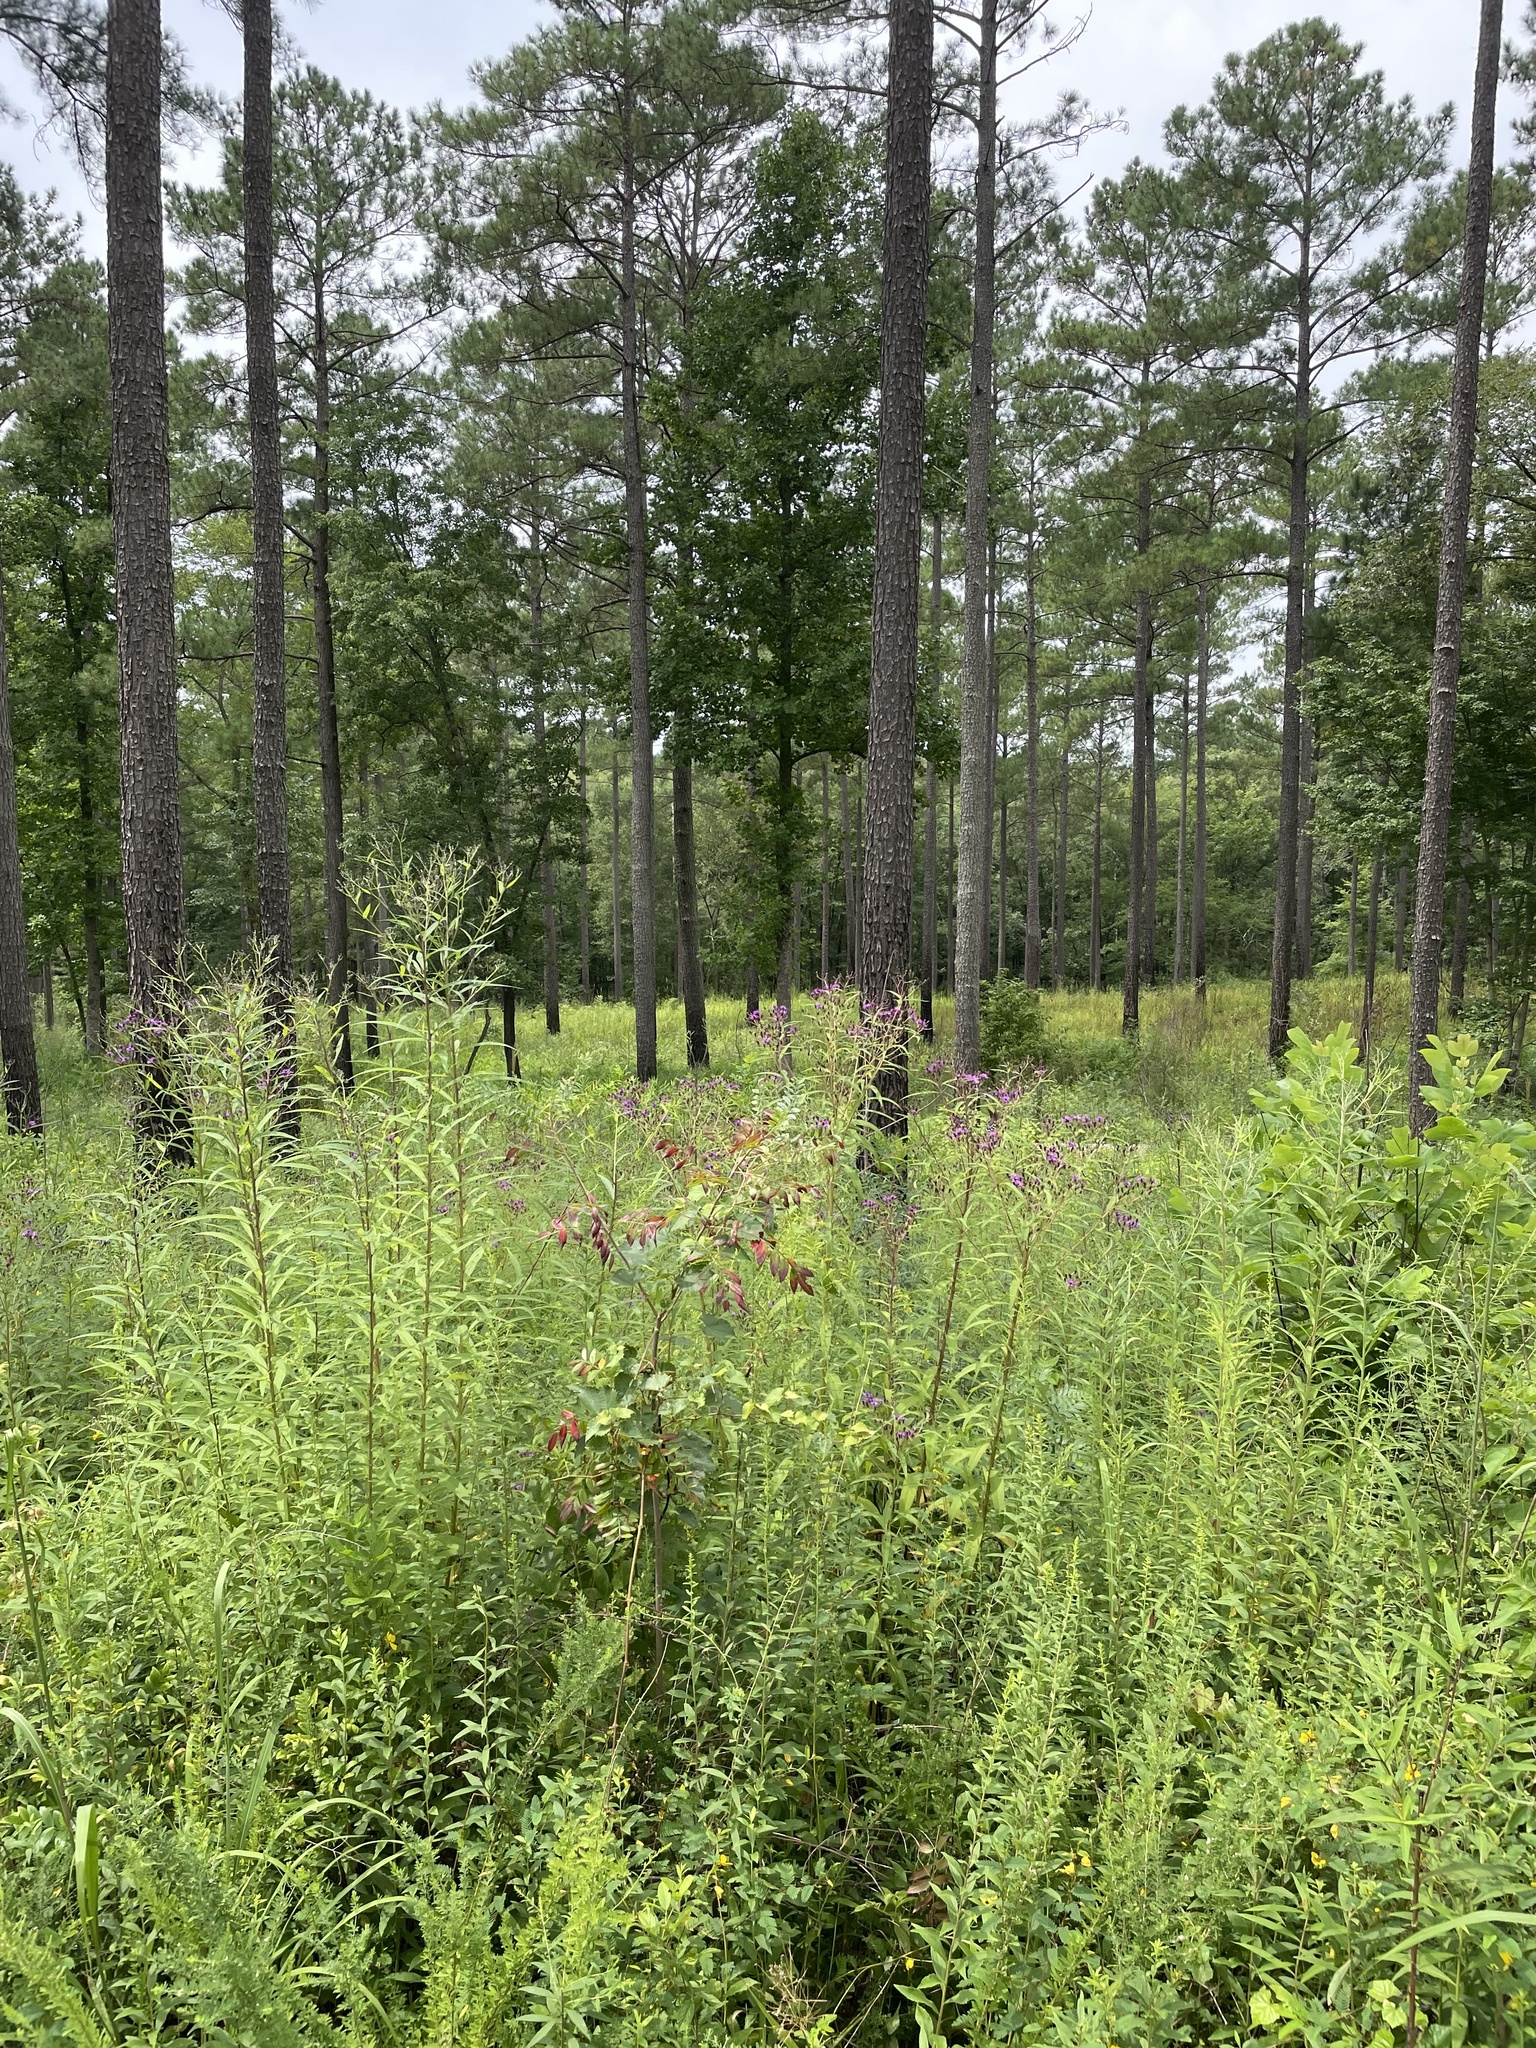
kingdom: Plantae
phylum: Tracheophyta
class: Magnoliopsida
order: Asterales
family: Asteraceae
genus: Vernonia
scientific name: Vernonia gigantea
